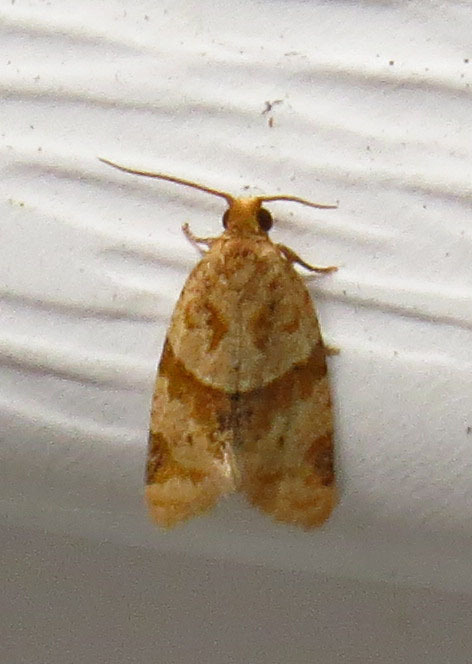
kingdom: Animalia
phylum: Arthropoda
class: Insecta
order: Lepidoptera
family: Tortricidae
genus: Clepsis
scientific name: Clepsis peritana
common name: Garden tortrix
